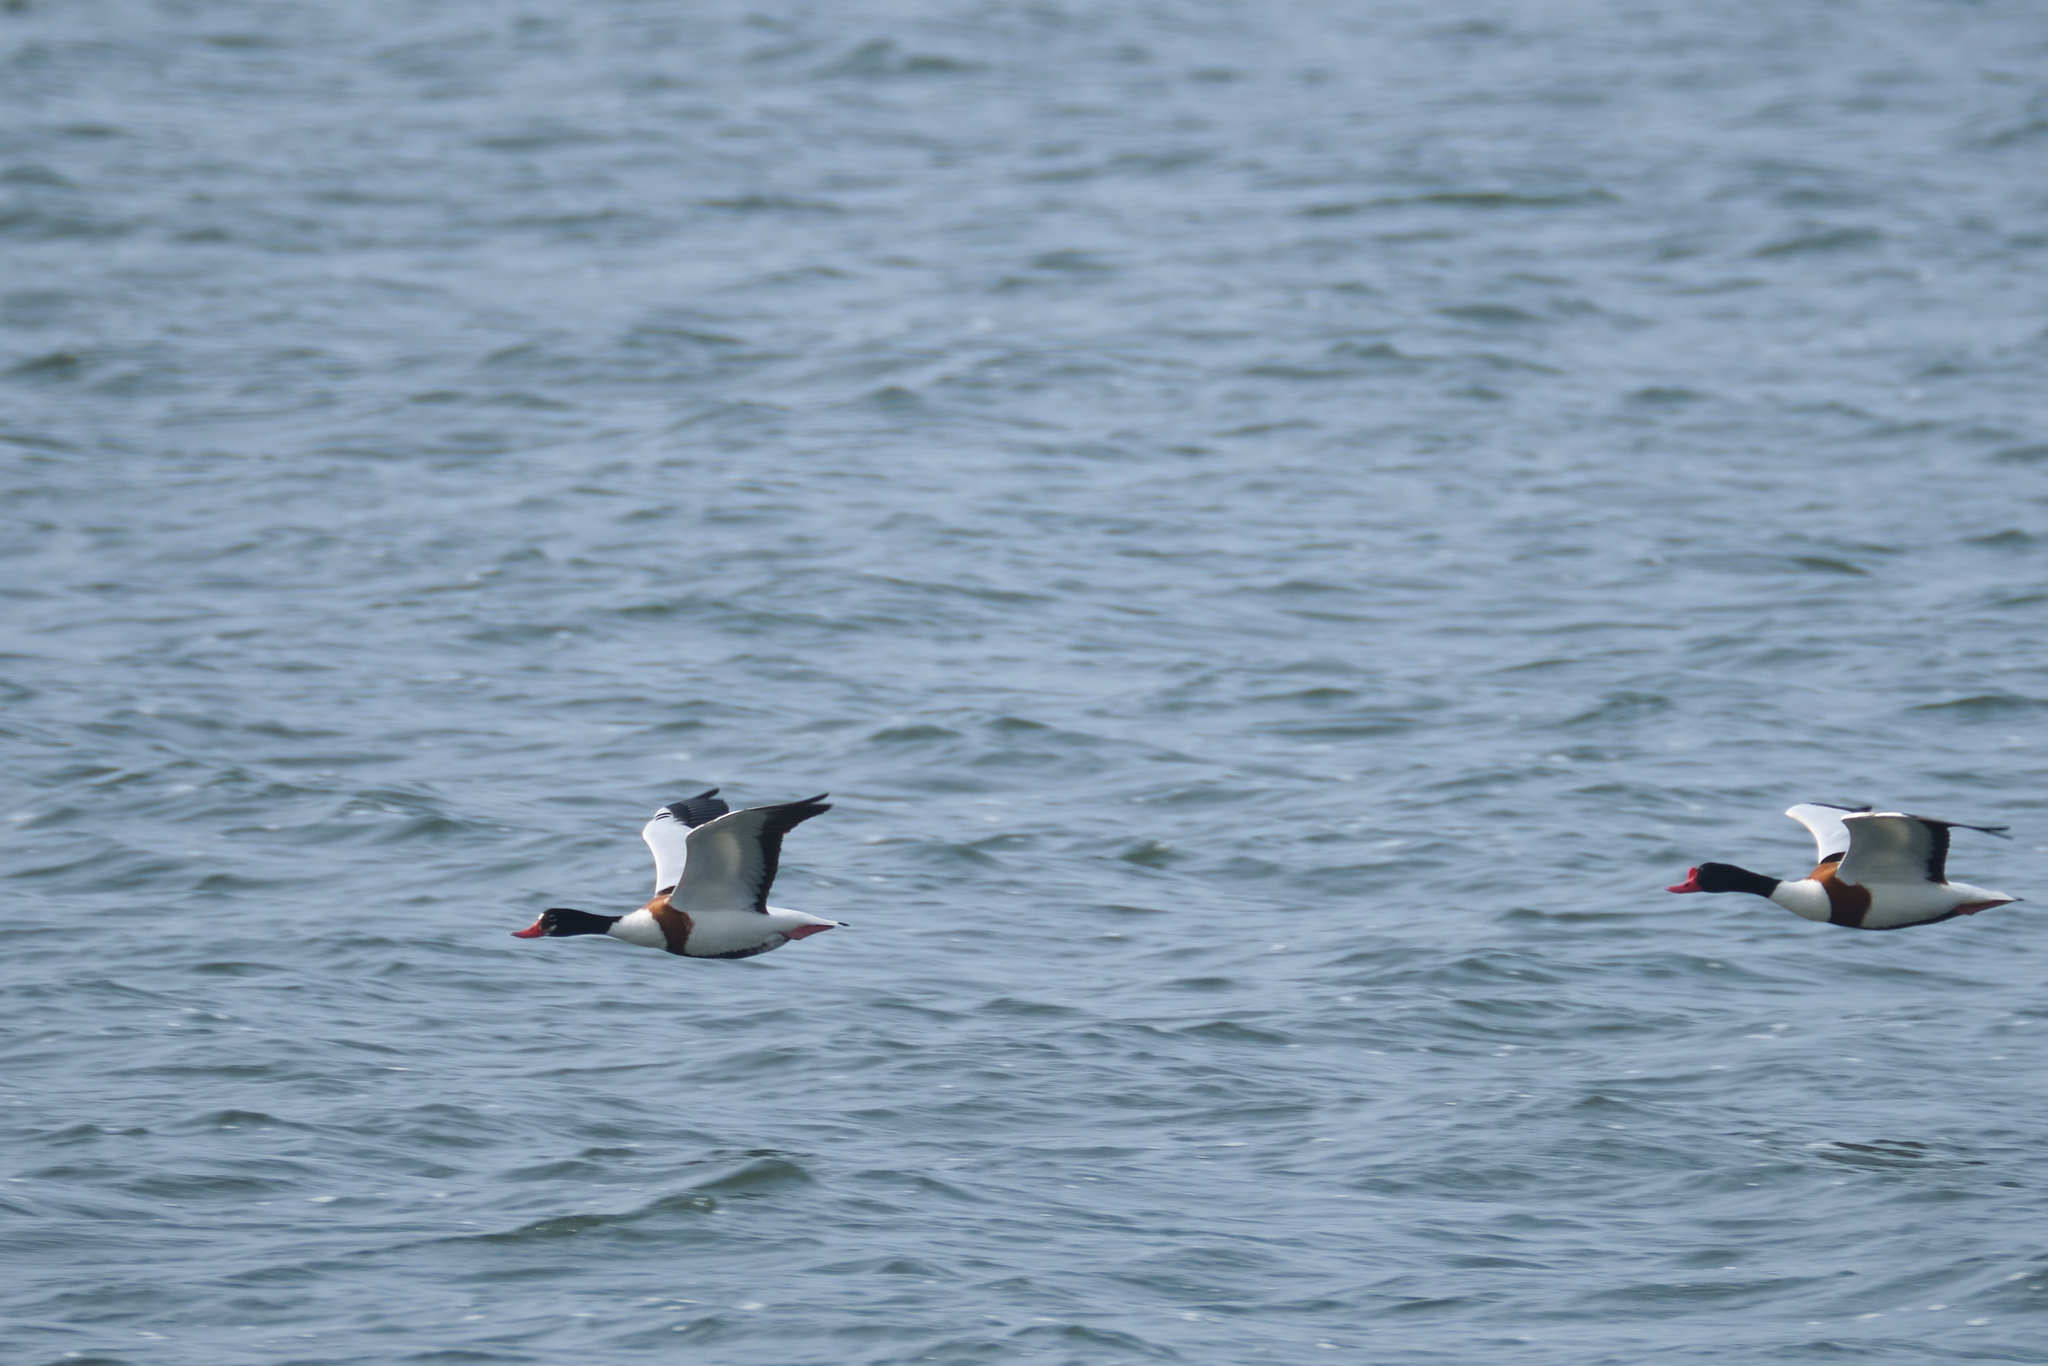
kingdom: Animalia
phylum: Chordata
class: Aves
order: Anseriformes
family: Anatidae
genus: Tadorna
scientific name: Tadorna tadorna
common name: Common shelduck
